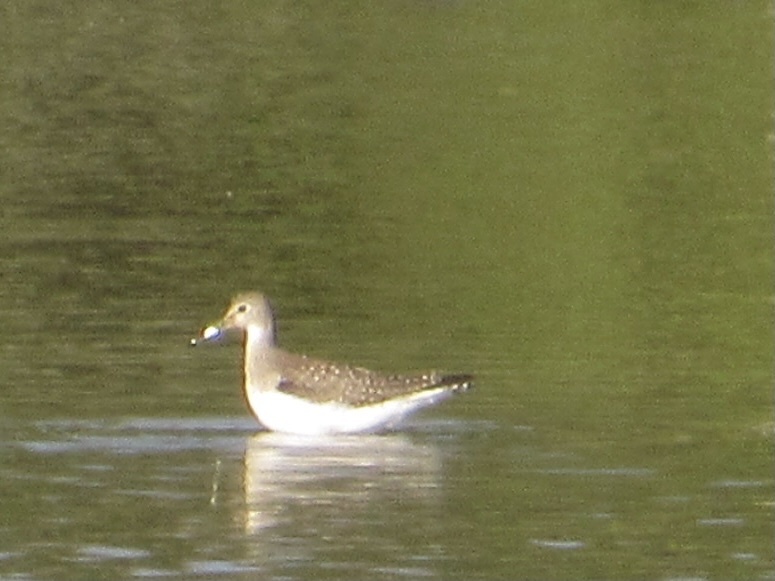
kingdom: Animalia
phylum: Chordata
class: Aves
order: Charadriiformes
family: Scolopacidae
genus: Tringa
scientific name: Tringa solitaria
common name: Solitary sandpiper
